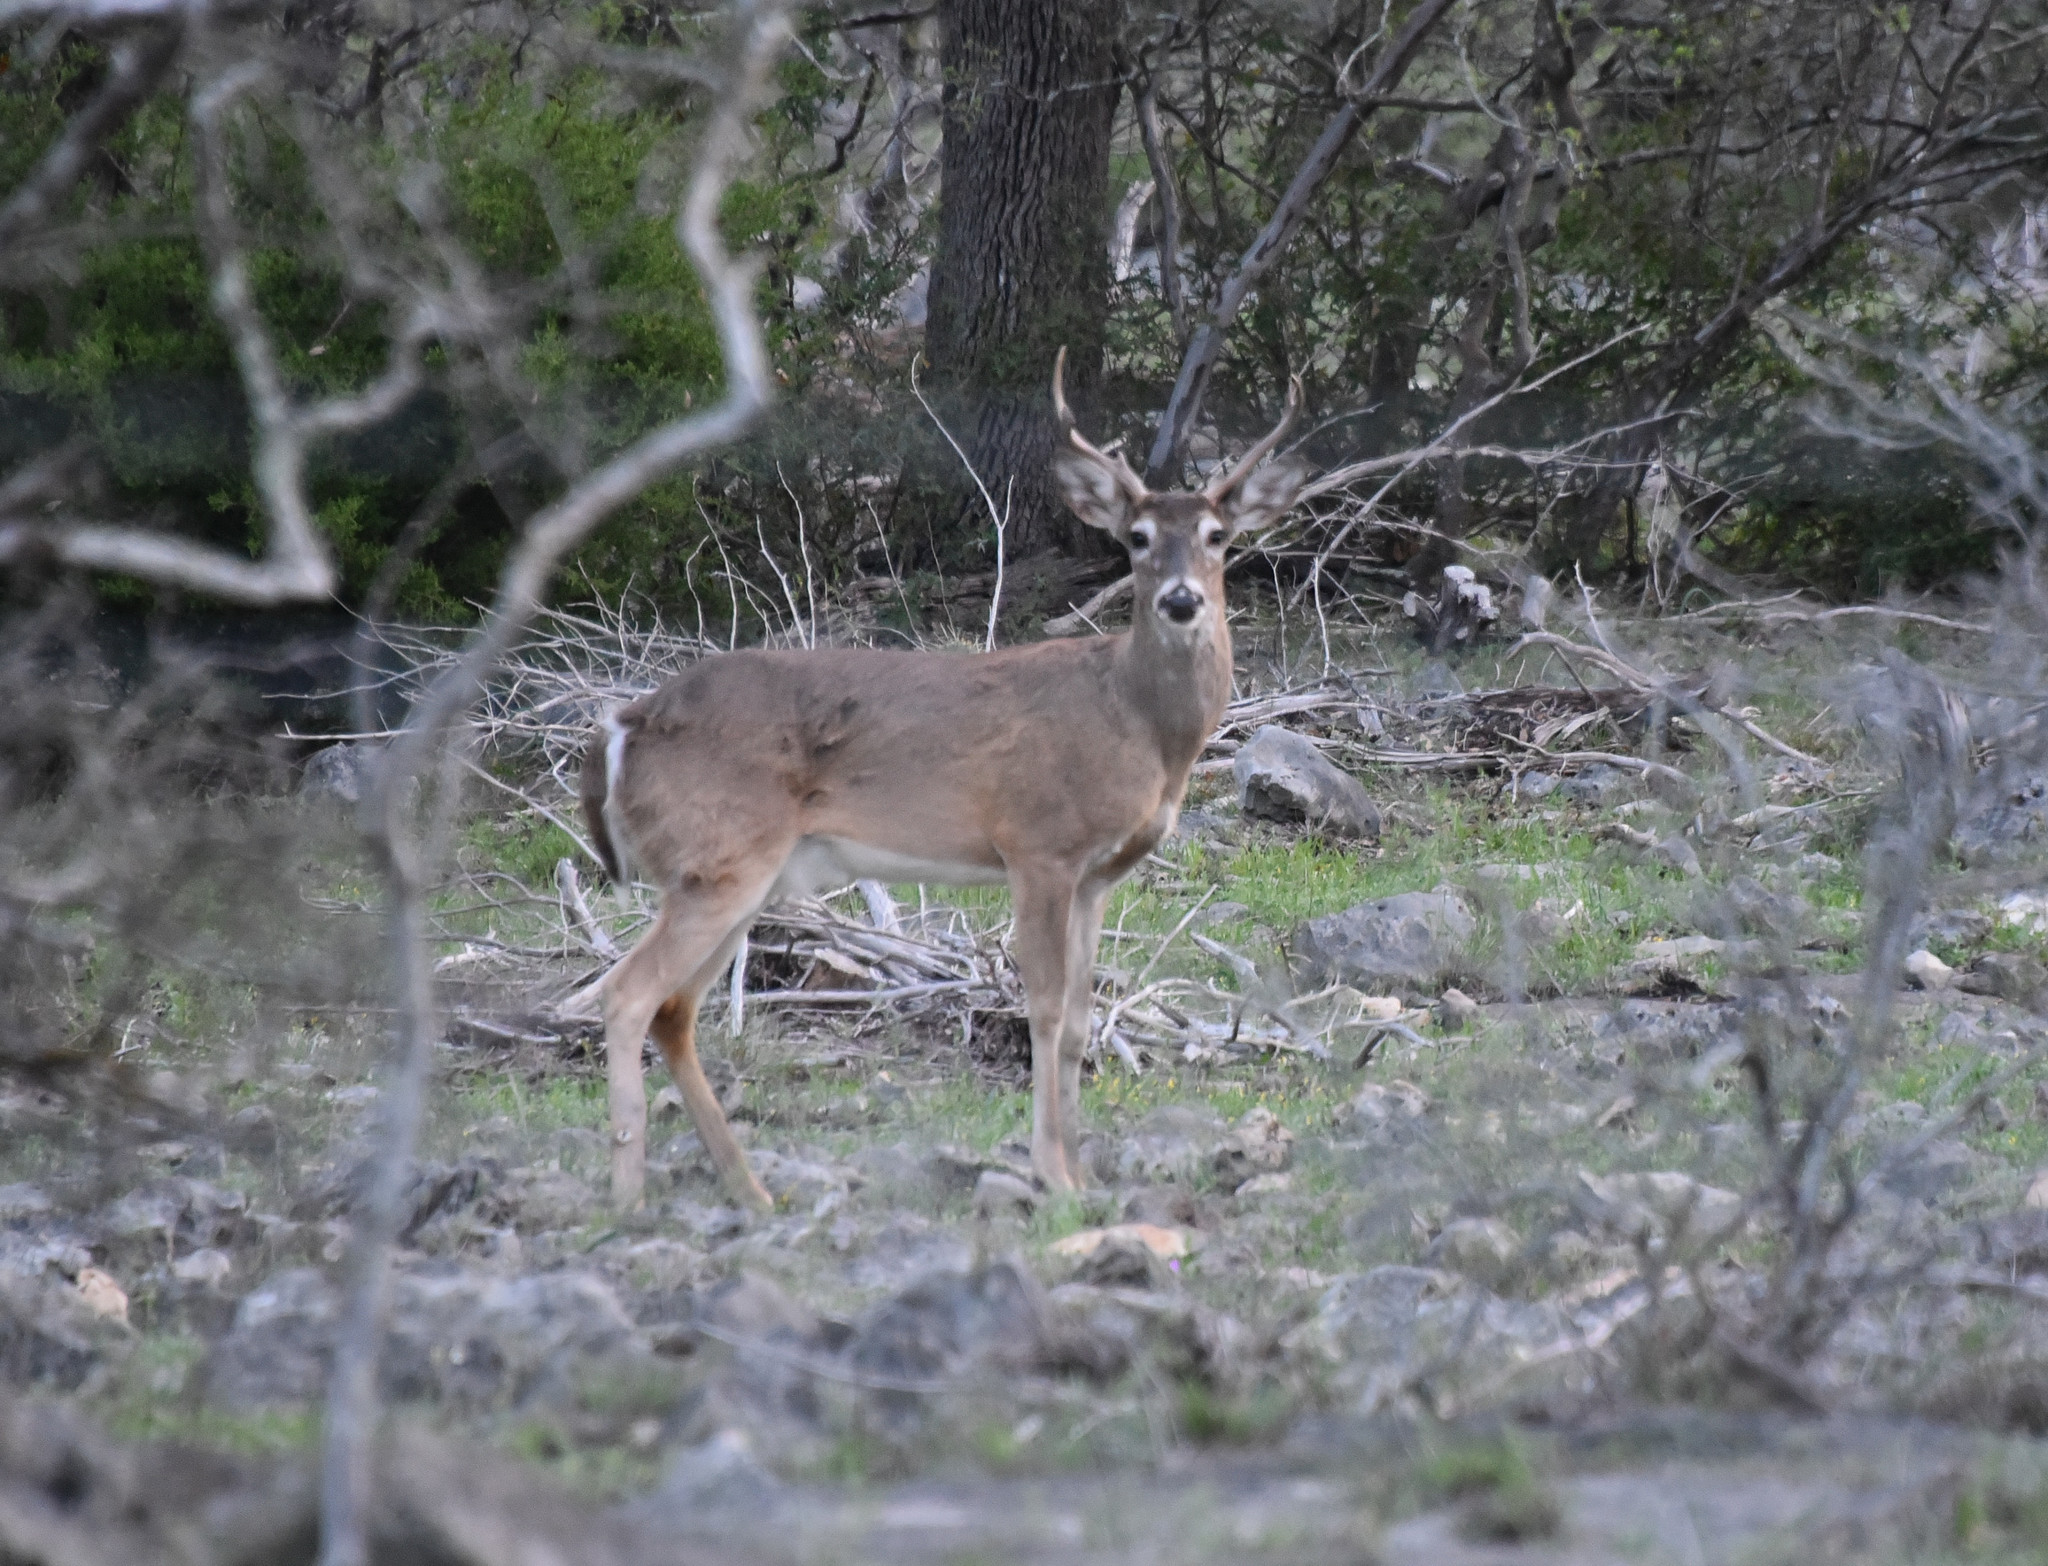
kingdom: Animalia
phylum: Chordata
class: Mammalia
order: Artiodactyla
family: Cervidae
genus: Odocoileus
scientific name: Odocoileus virginianus
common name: White-tailed deer
